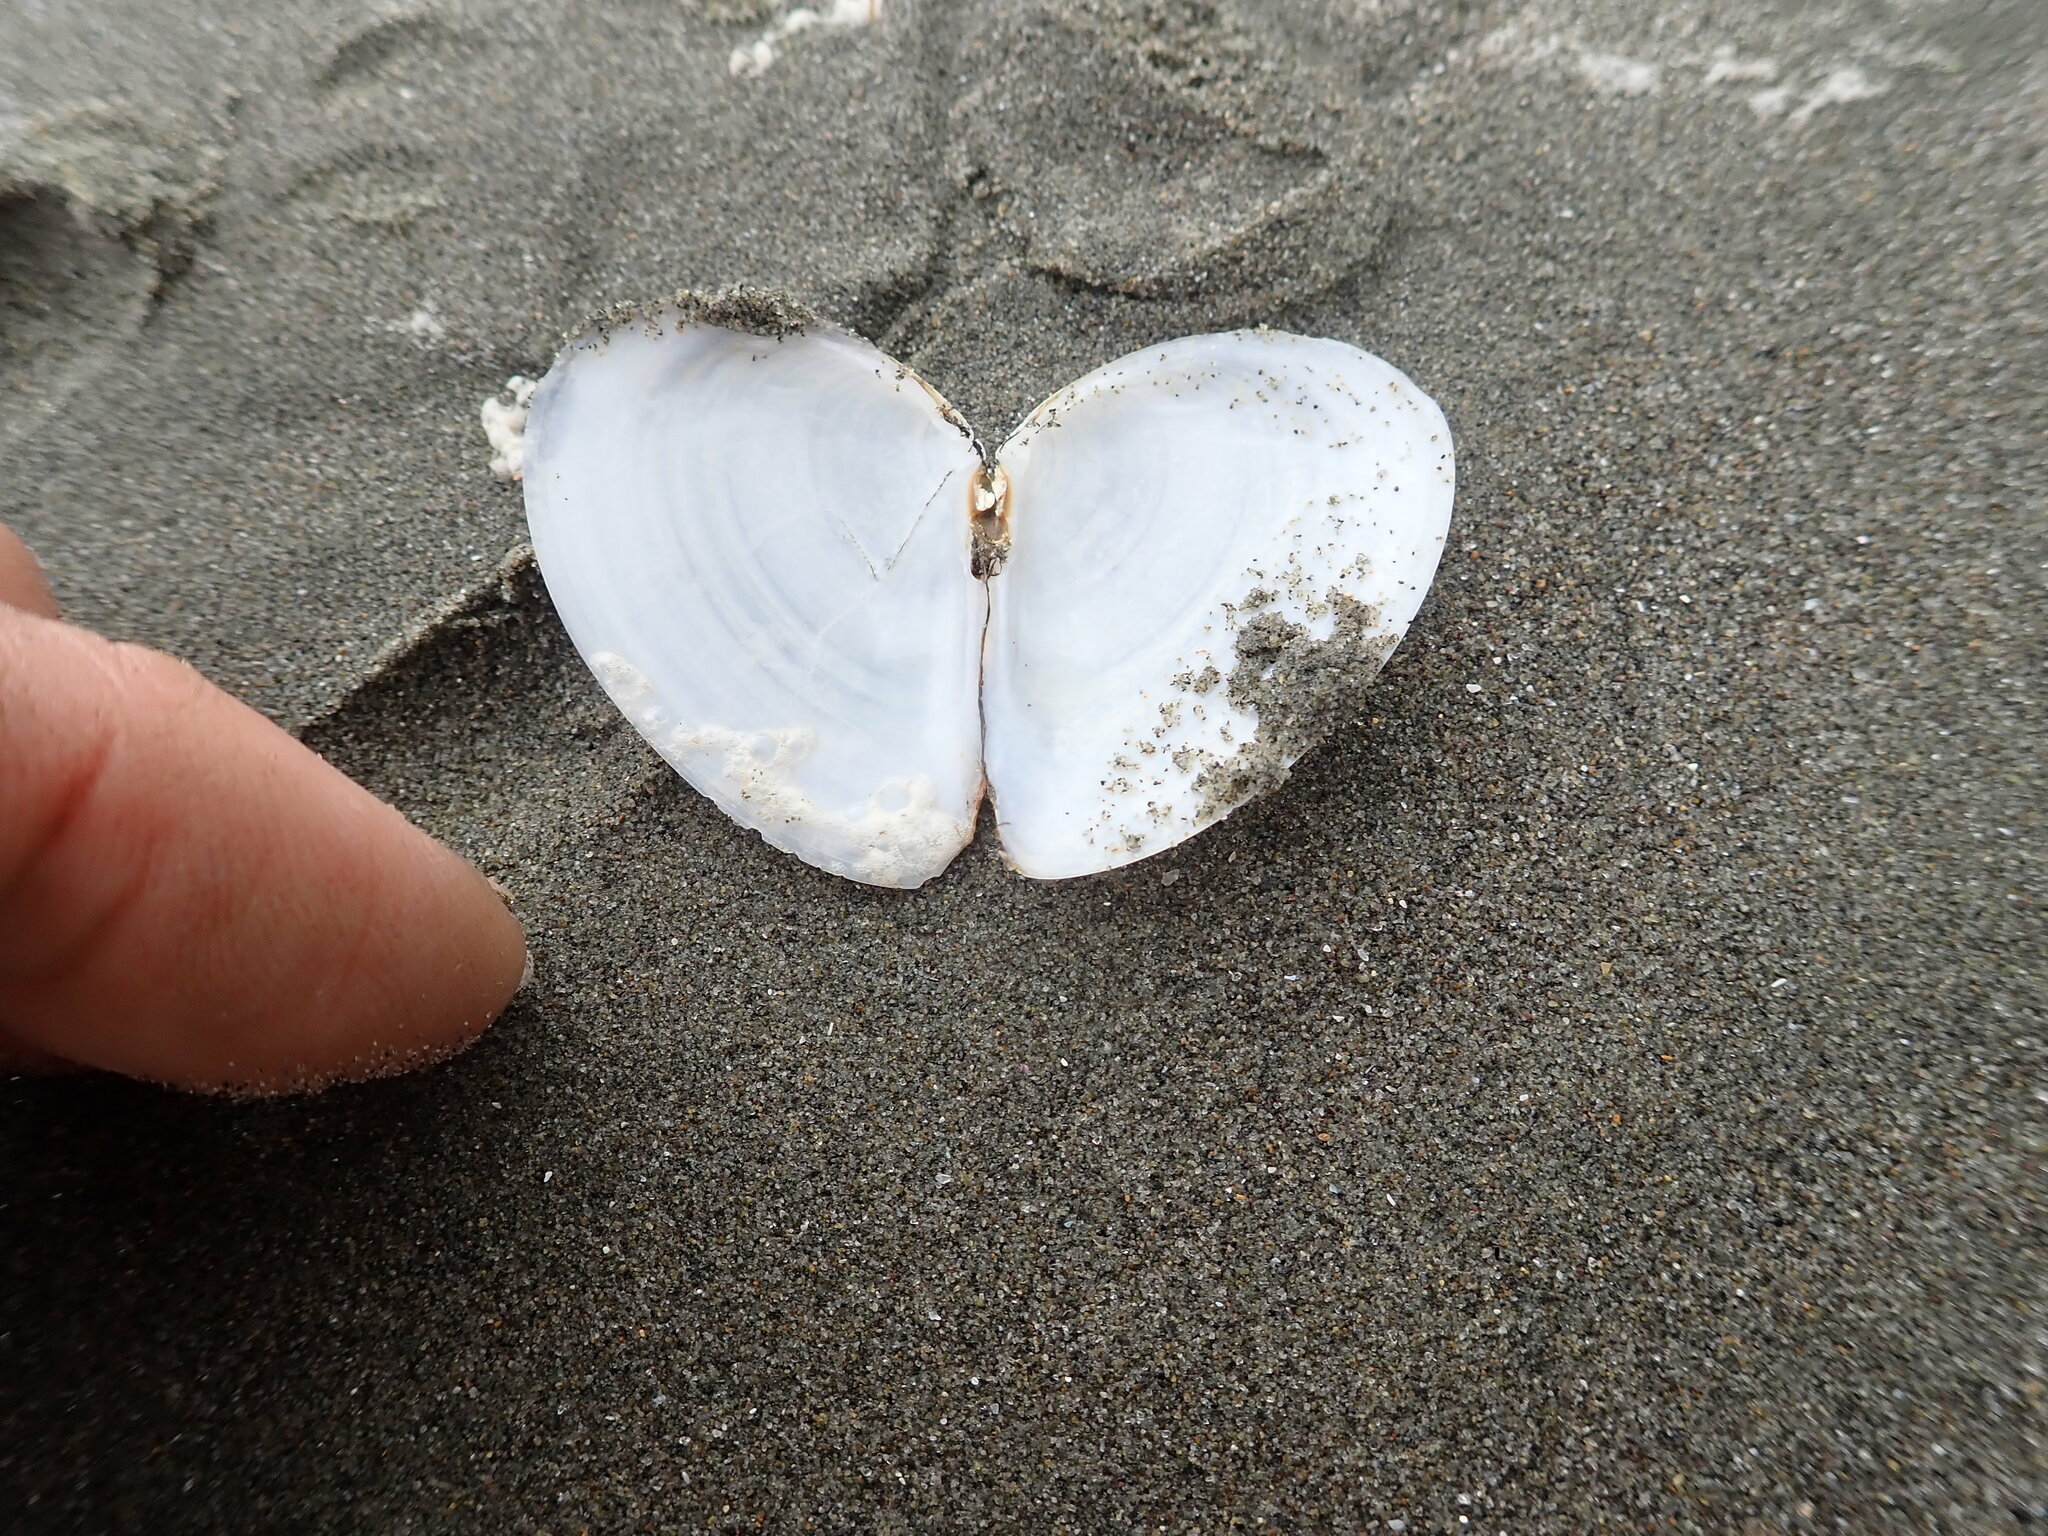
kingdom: Animalia
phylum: Mollusca
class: Bivalvia
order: Cardiida
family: Tellinidae
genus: Macomona
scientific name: Macomona liliana
